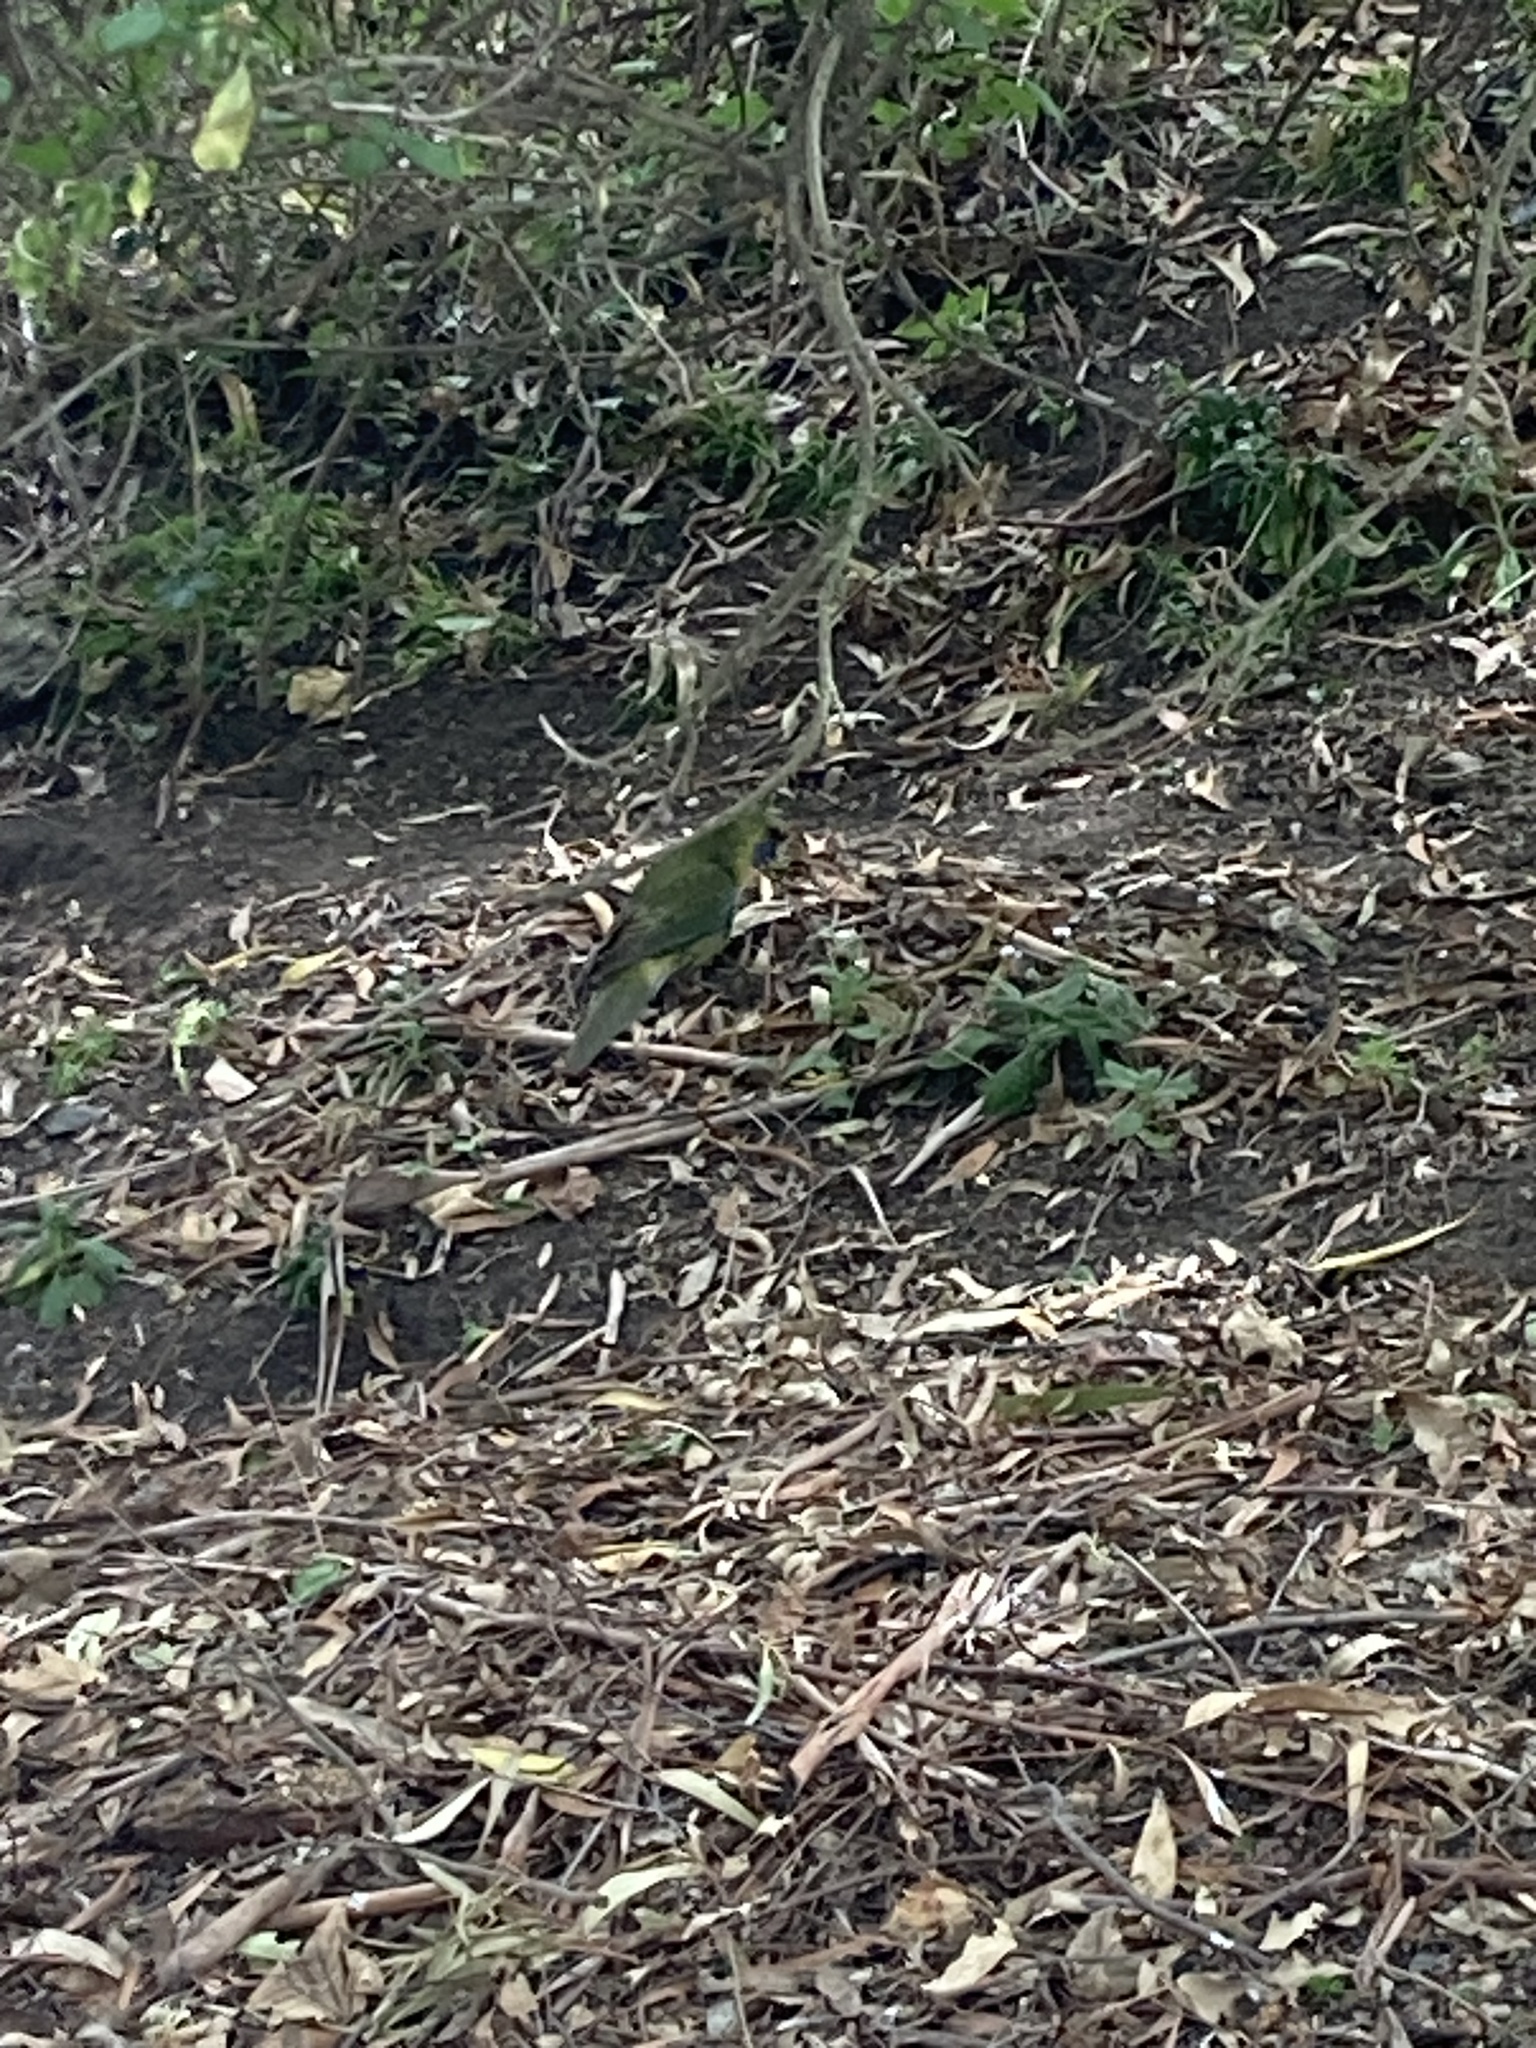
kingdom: Animalia
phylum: Chordata
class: Aves
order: Psittaciformes
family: Psittacidae
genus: Platycercus
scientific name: Platycercus caledonicus
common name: Green rosella
